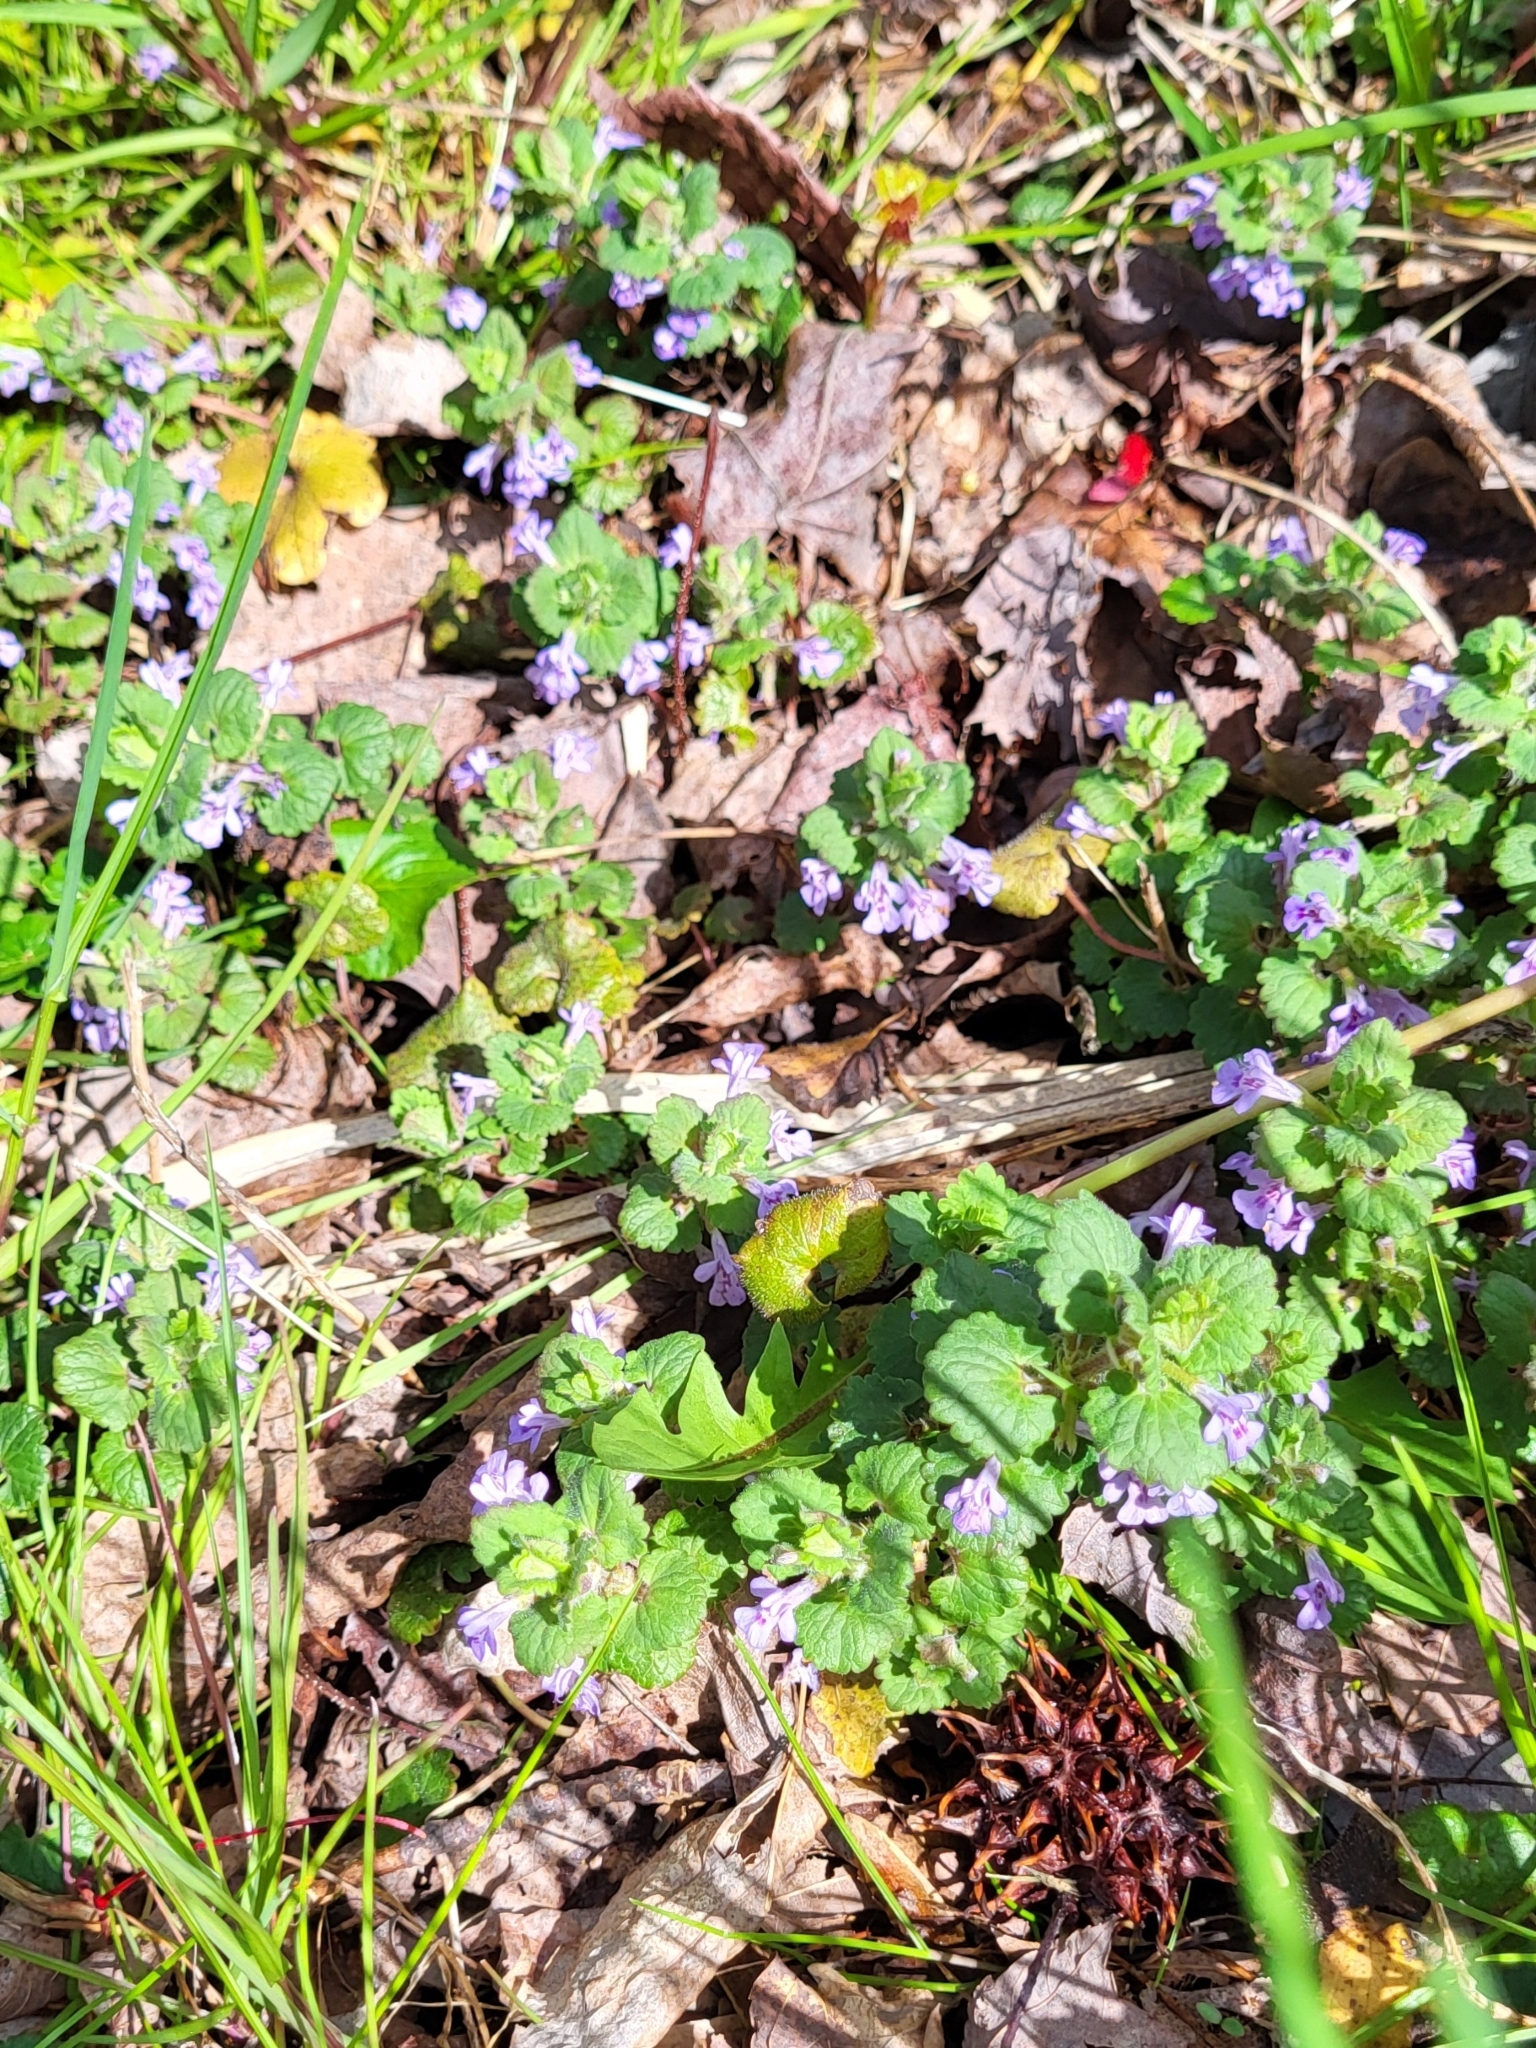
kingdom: Plantae
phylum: Tracheophyta
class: Magnoliopsida
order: Lamiales
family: Lamiaceae
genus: Glechoma
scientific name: Glechoma hederacea
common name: Ground ivy
